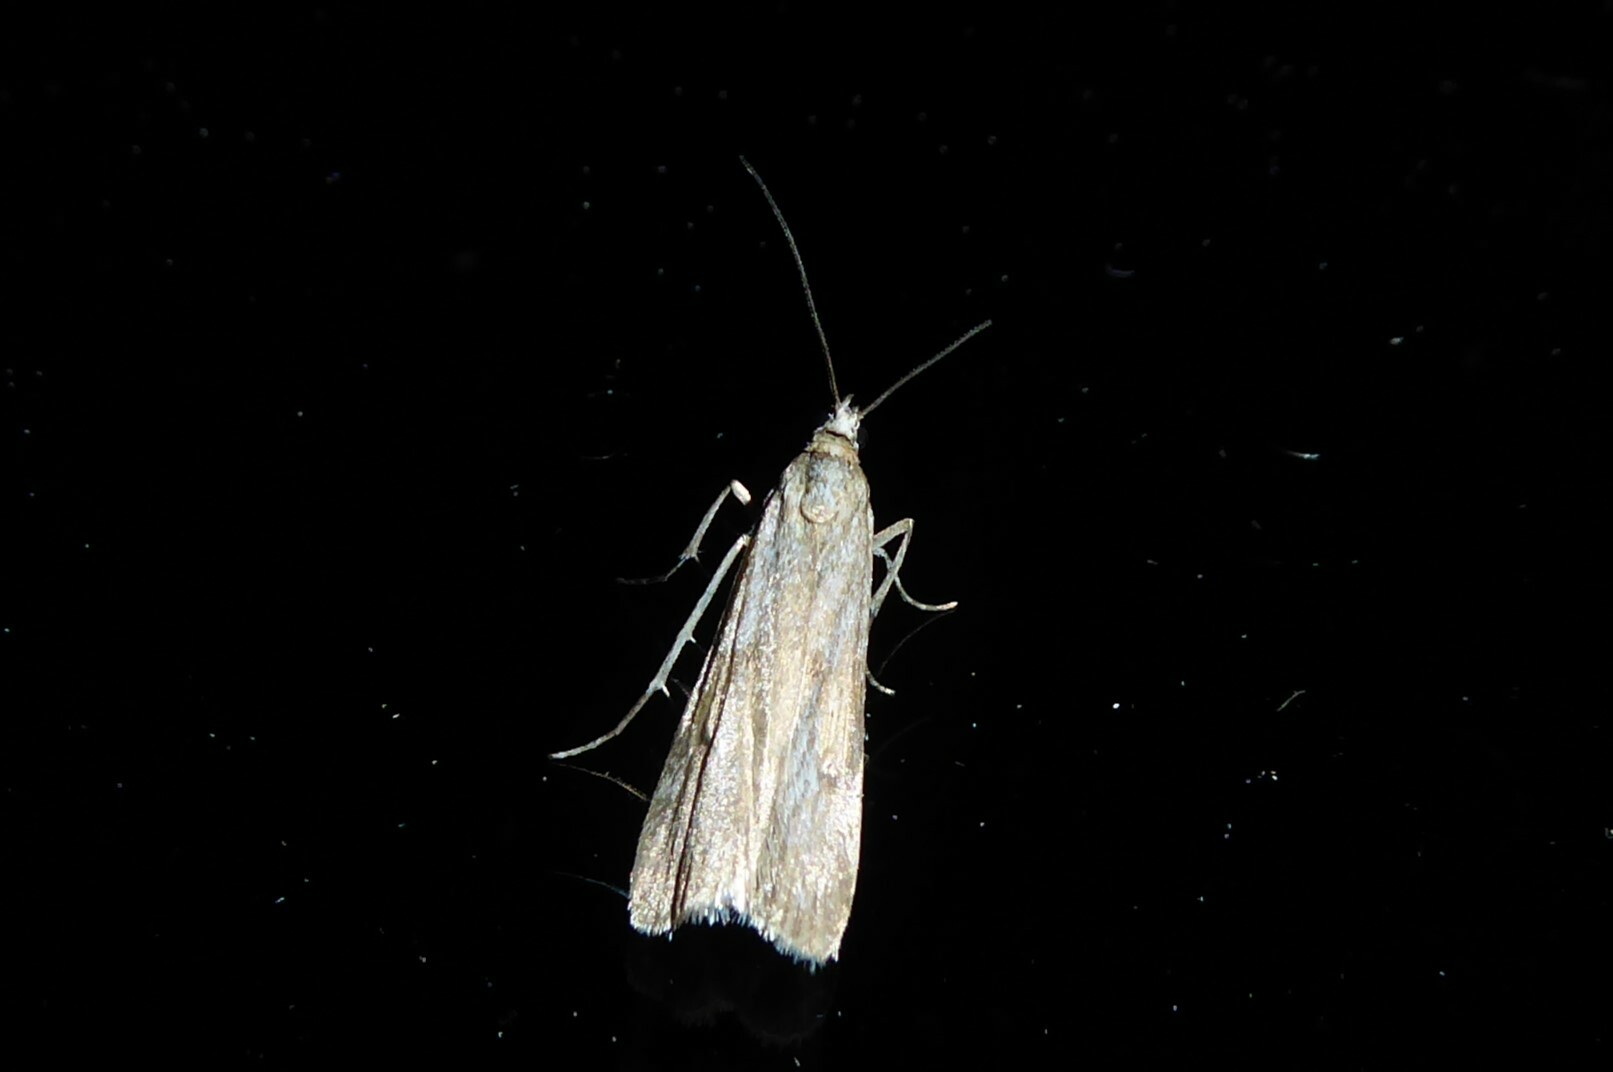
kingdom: Animalia
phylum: Arthropoda
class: Insecta
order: Lepidoptera
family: Crambidae
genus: Eudonia
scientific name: Eudonia leptalea
